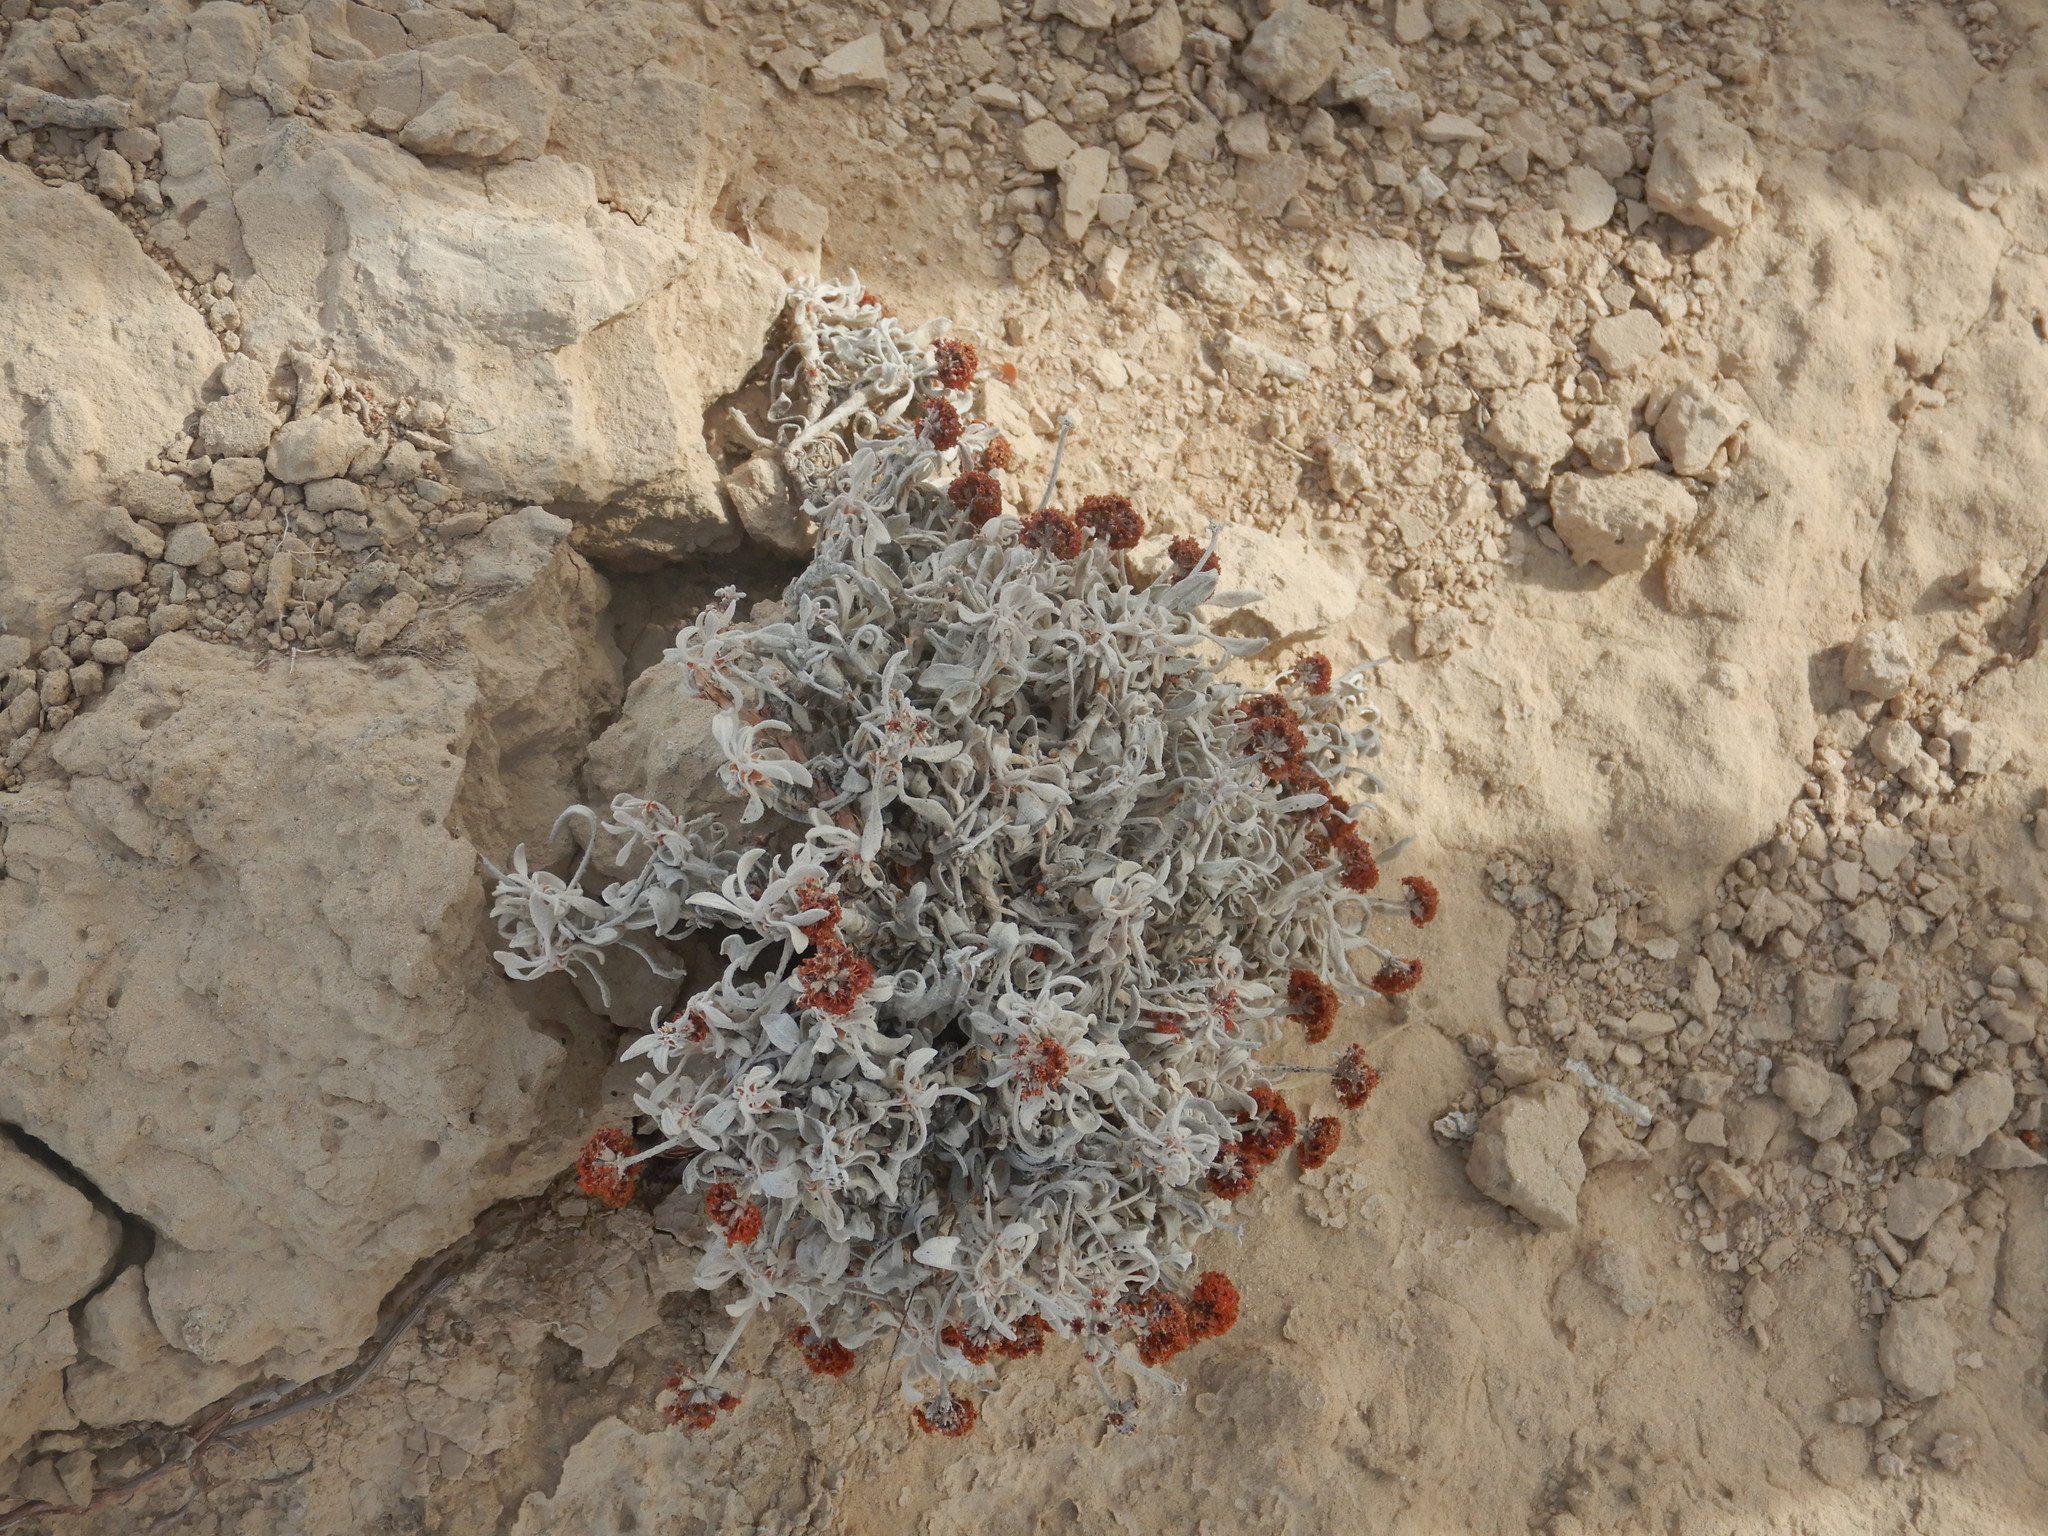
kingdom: Plantae
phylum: Tracheophyta
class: Magnoliopsida
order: Caryophyllales
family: Polygonaceae
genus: Eriogonum
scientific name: Eriogonum pauciflorum
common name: Few-flower wild buckwheat
